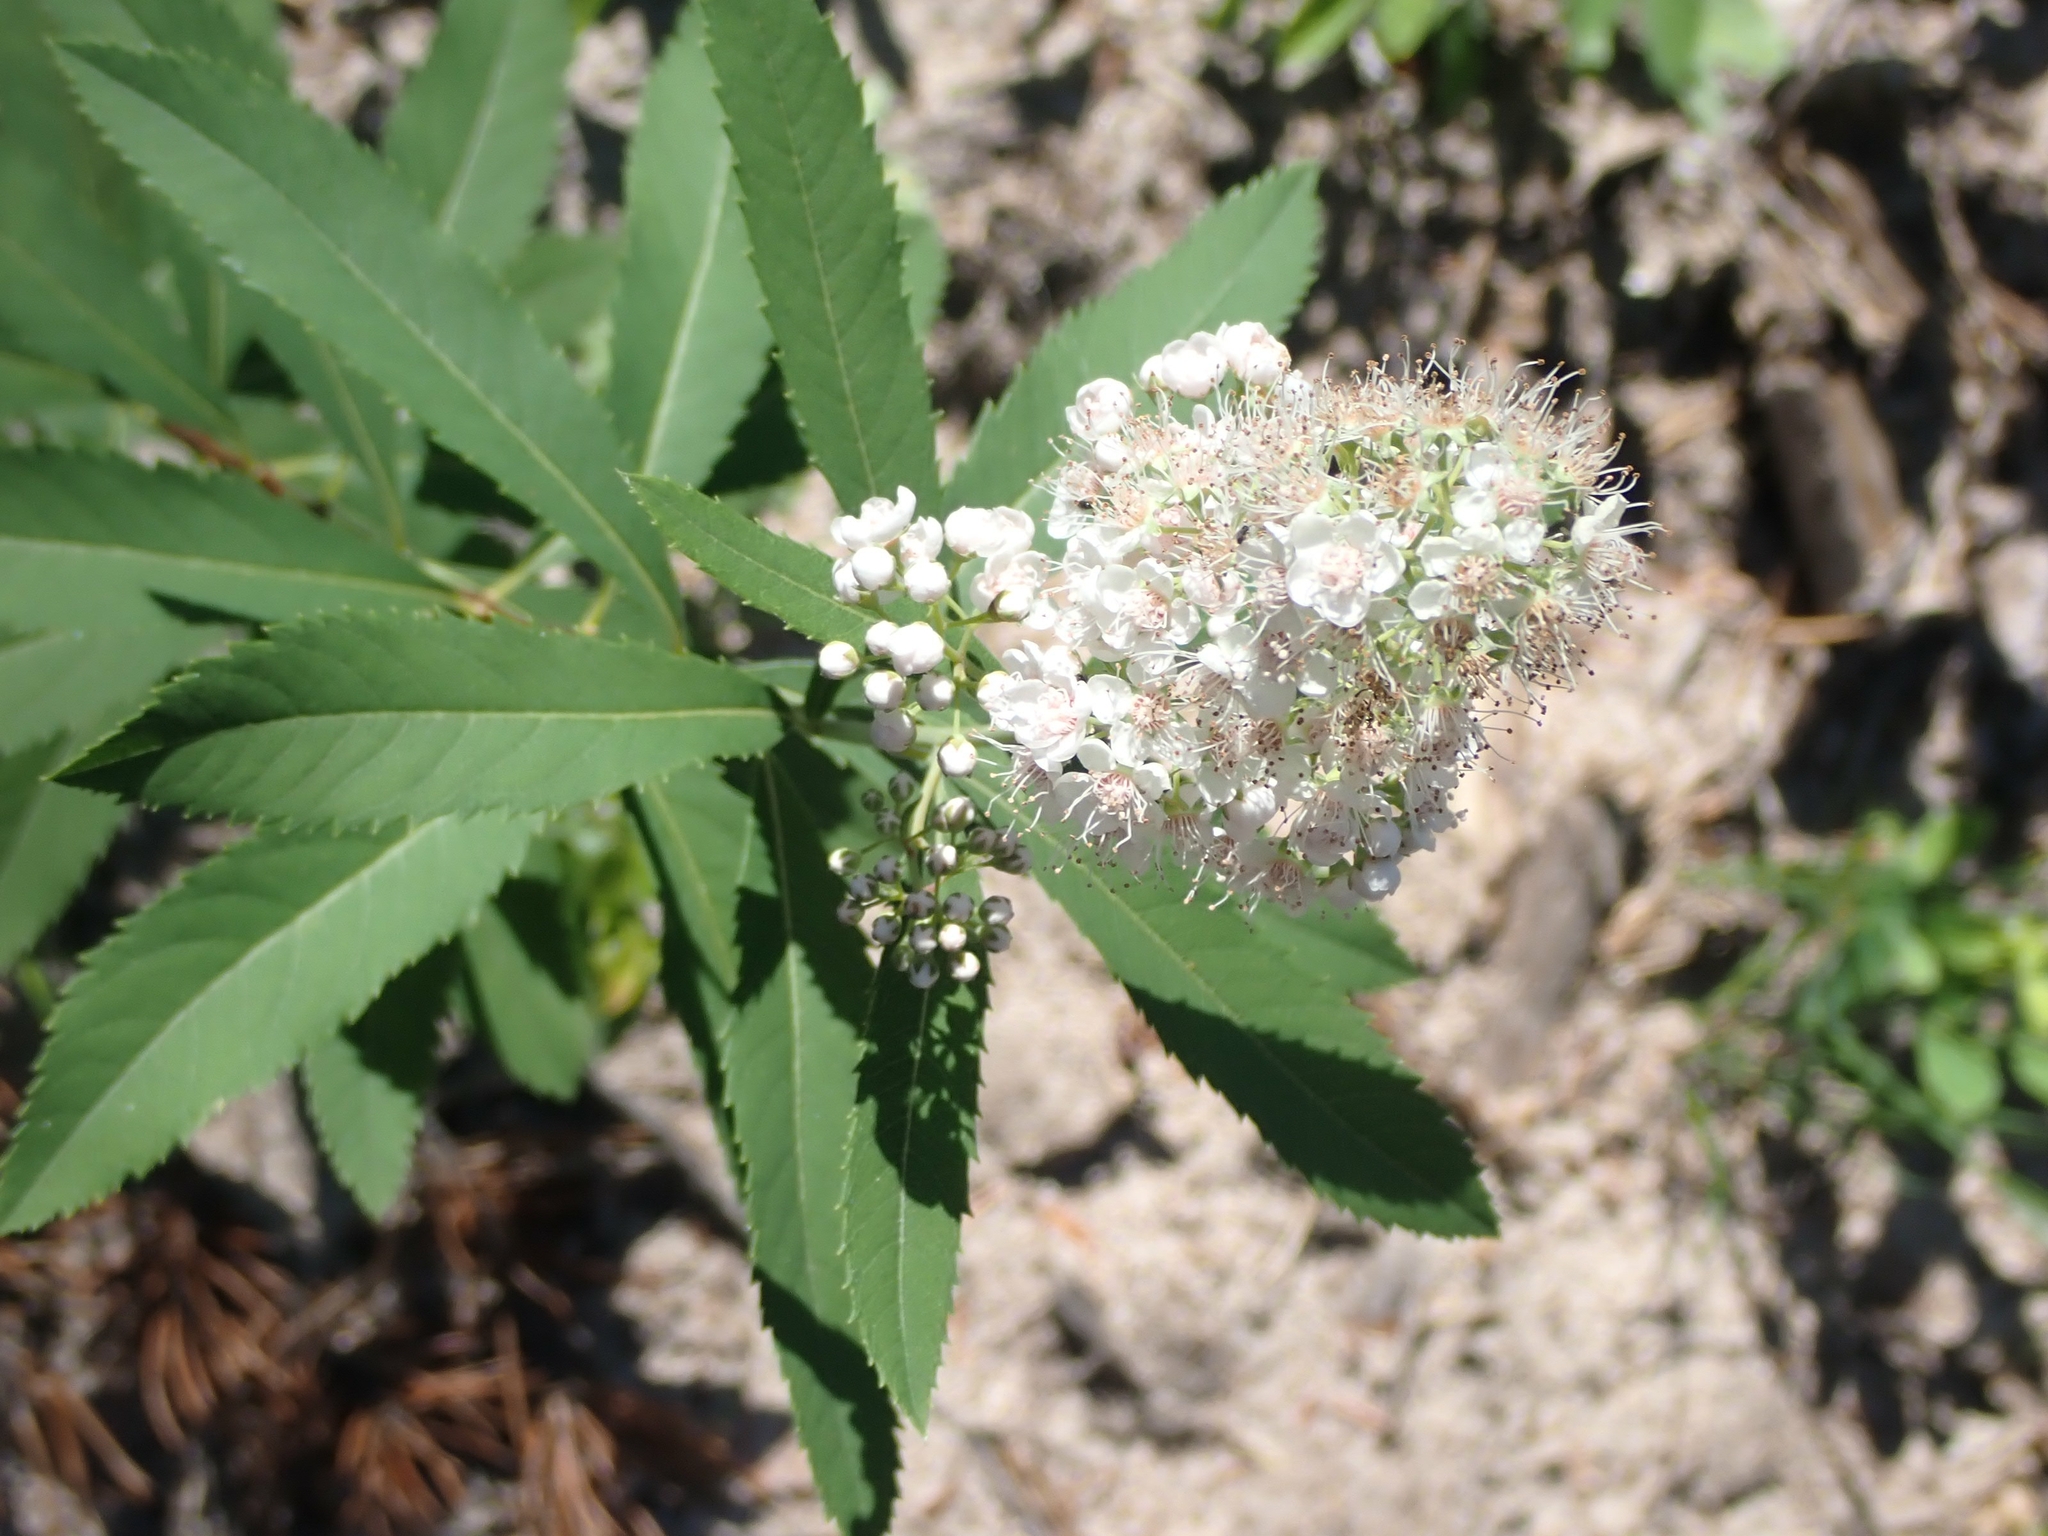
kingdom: Plantae
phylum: Tracheophyta
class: Magnoliopsida
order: Rosales
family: Rosaceae
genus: Spiraea
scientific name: Spiraea alba
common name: Pale bridewort
